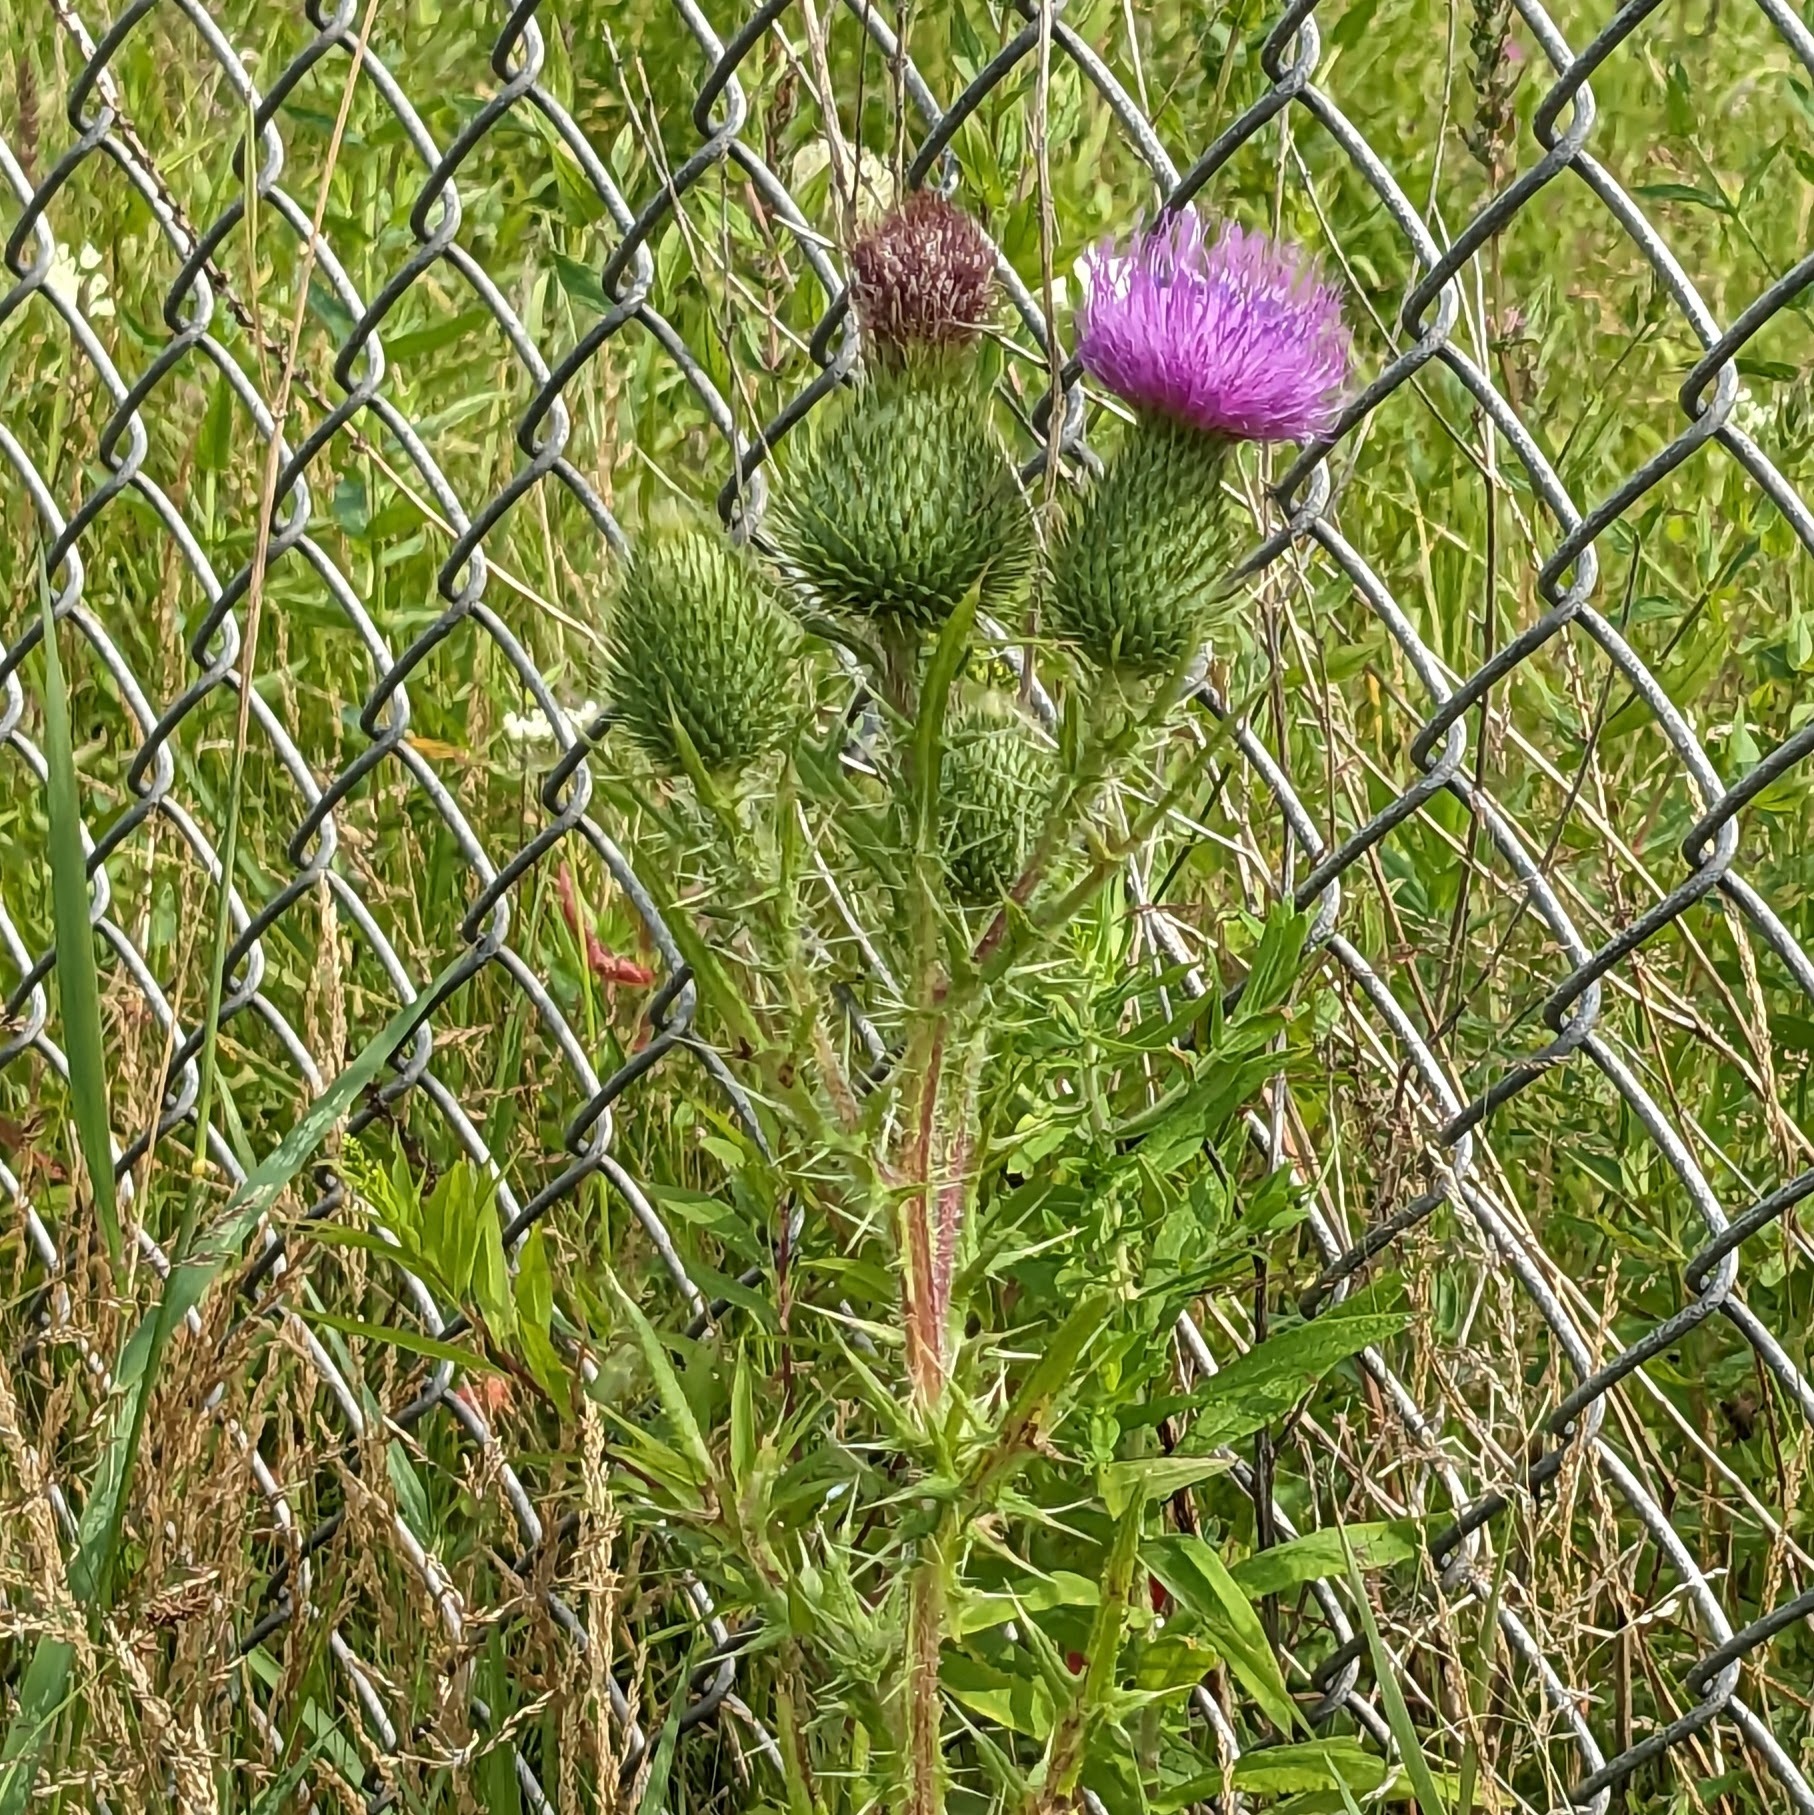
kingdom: Plantae
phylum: Tracheophyta
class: Magnoliopsida
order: Asterales
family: Asteraceae
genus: Cirsium
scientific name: Cirsium vulgare
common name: Bull thistle
